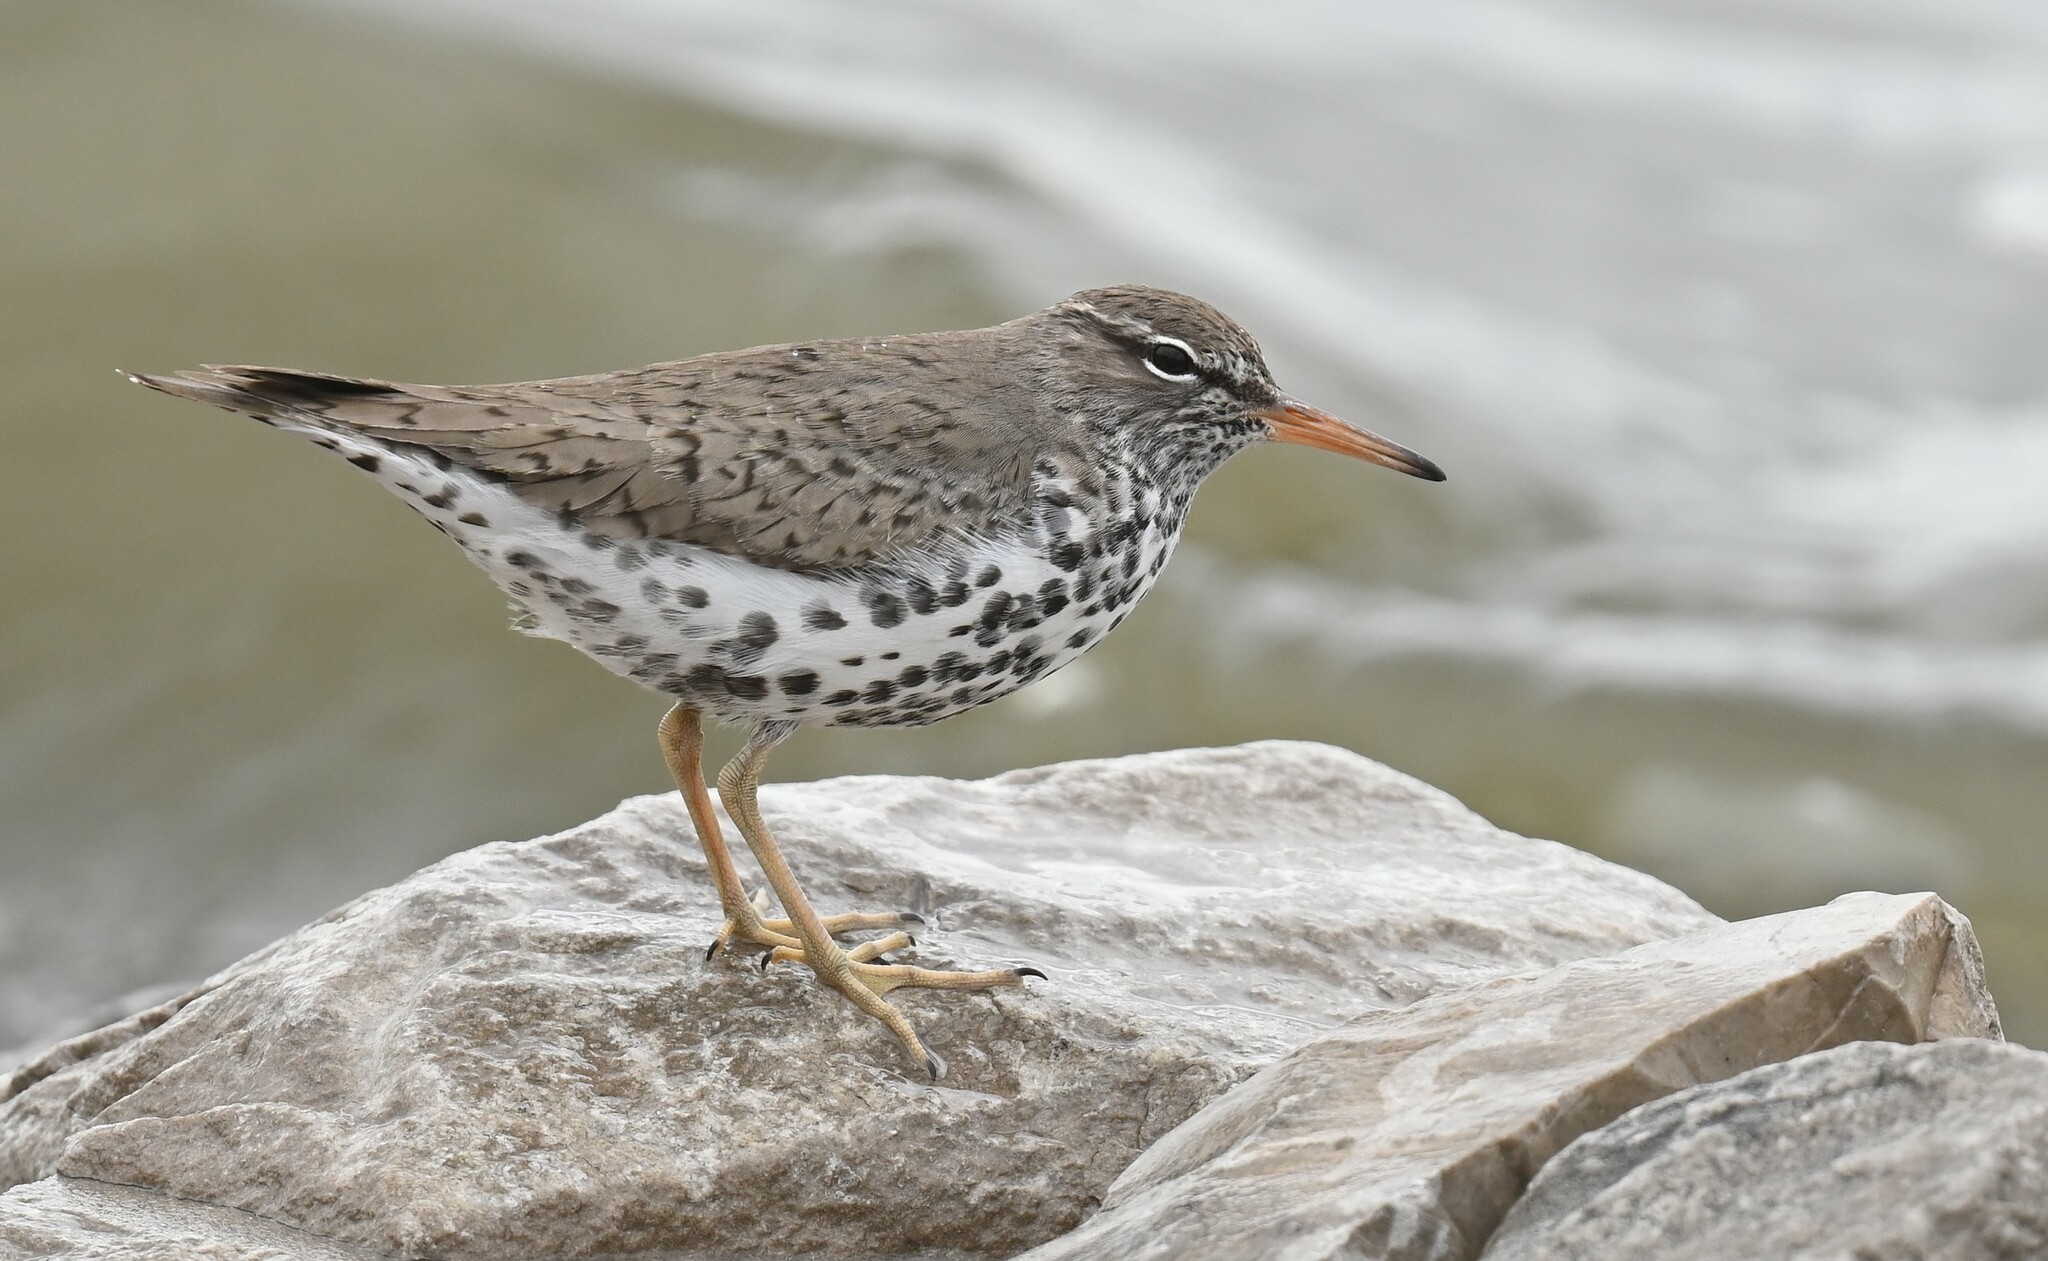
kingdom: Animalia
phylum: Chordata
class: Aves
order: Charadriiformes
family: Scolopacidae
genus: Actitis
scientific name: Actitis macularius
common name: Spotted sandpiper
